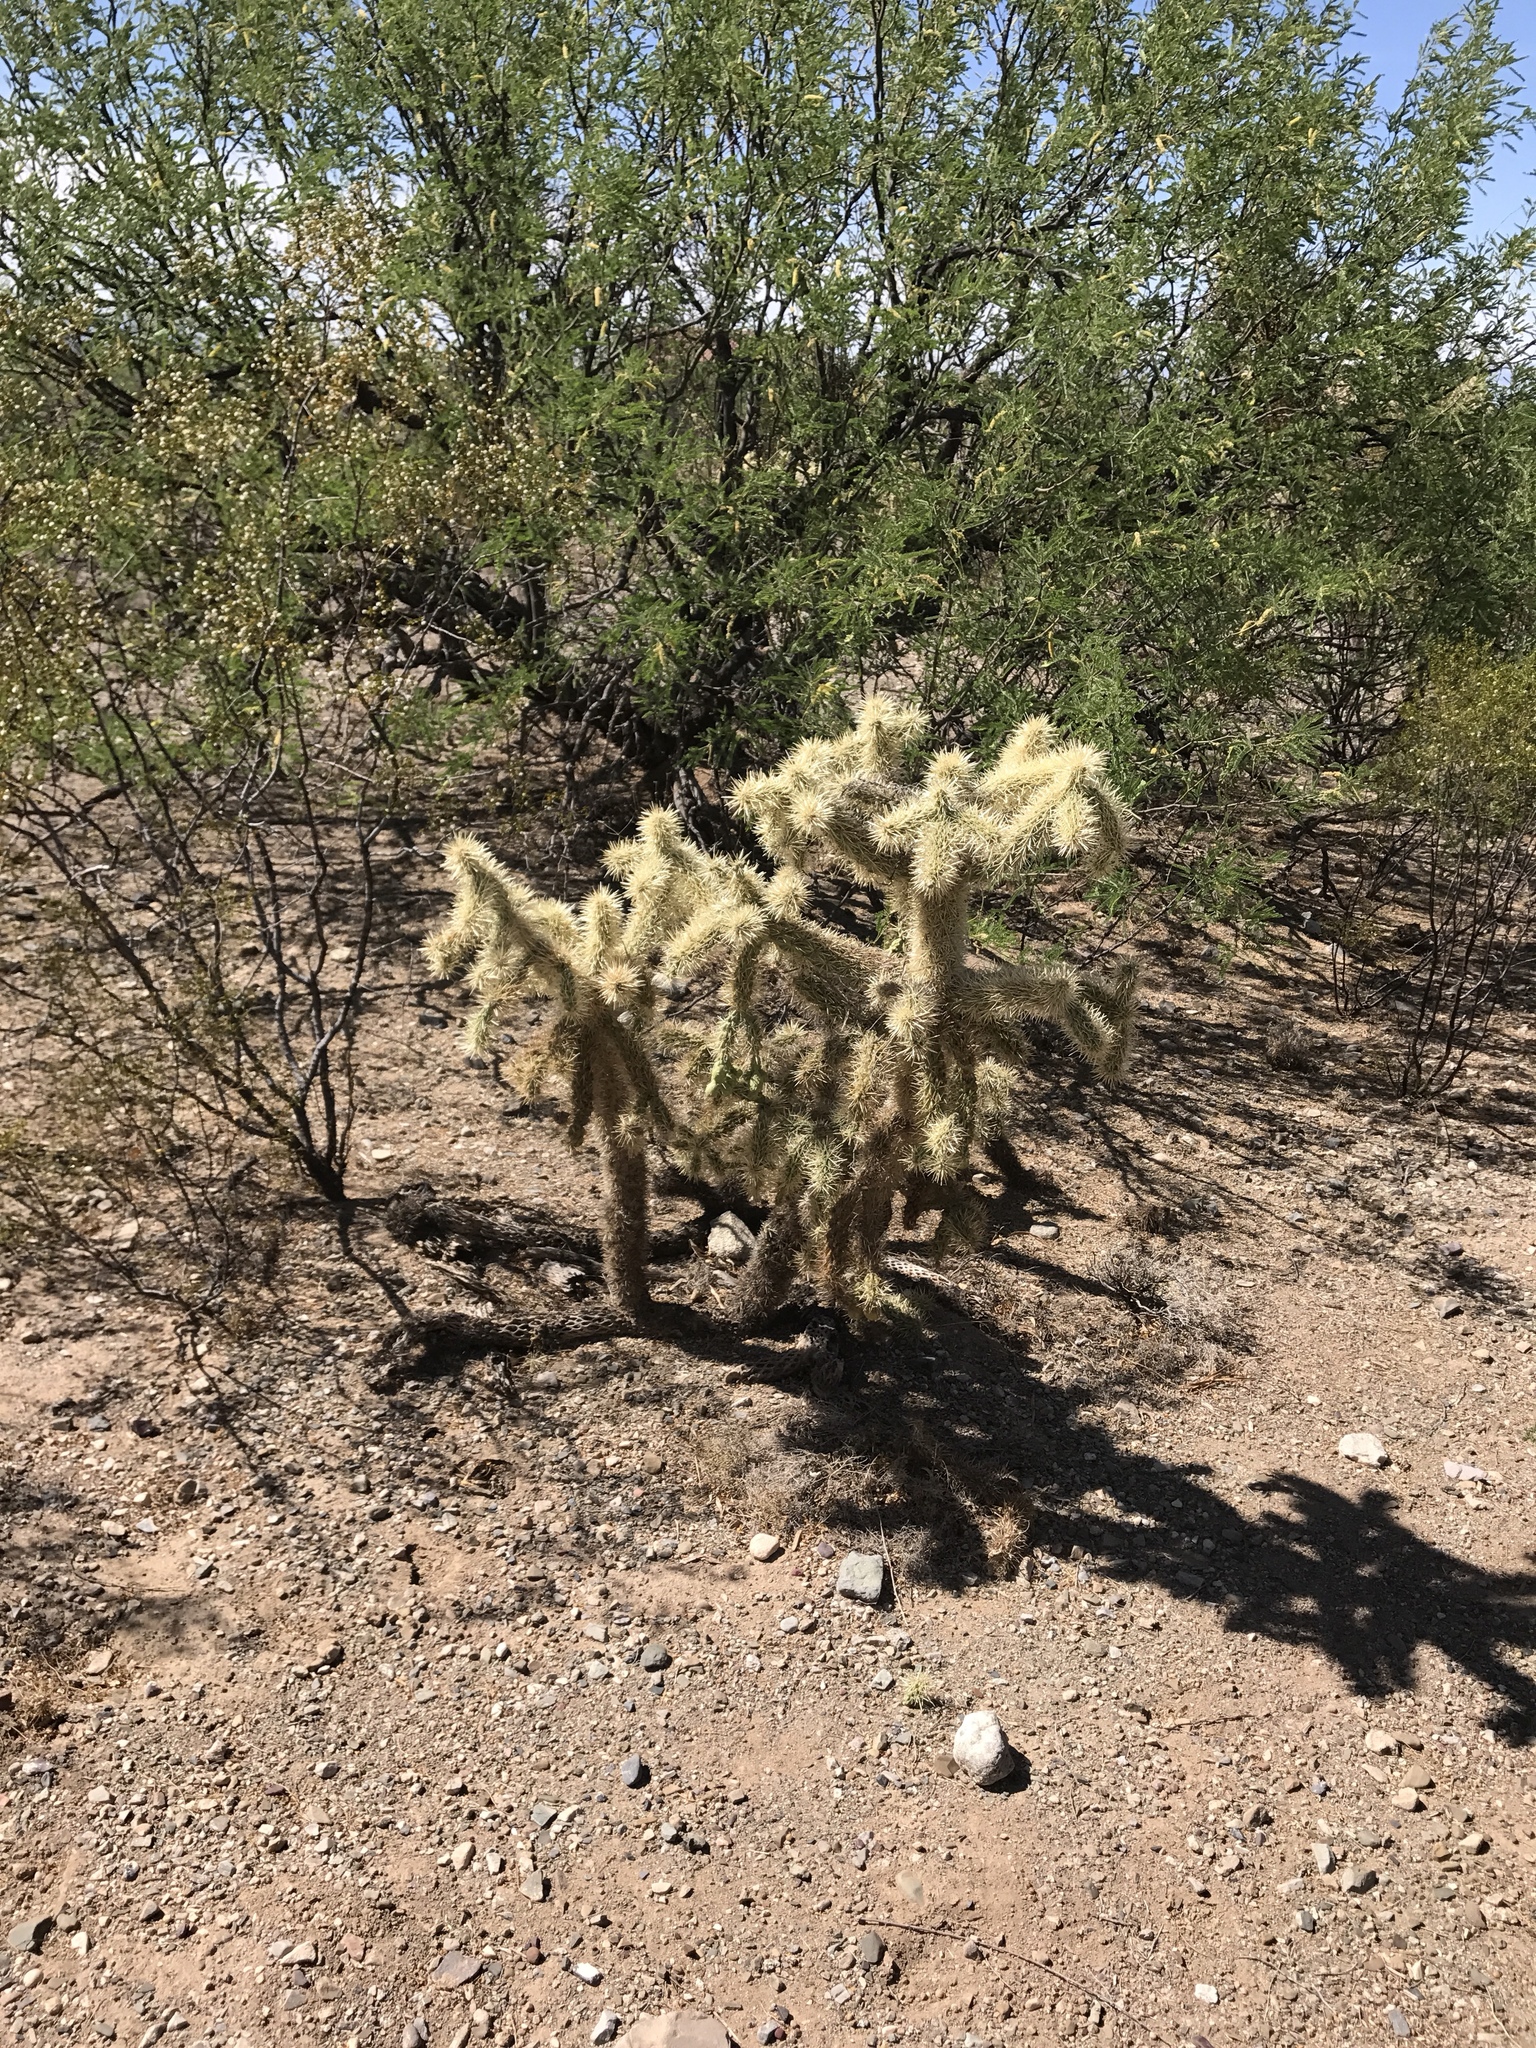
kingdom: Plantae
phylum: Tracheophyta
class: Magnoliopsida
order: Caryophyllales
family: Cactaceae
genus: Cylindropuntia
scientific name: Cylindropuntia fulgida
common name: Jumping cholla
